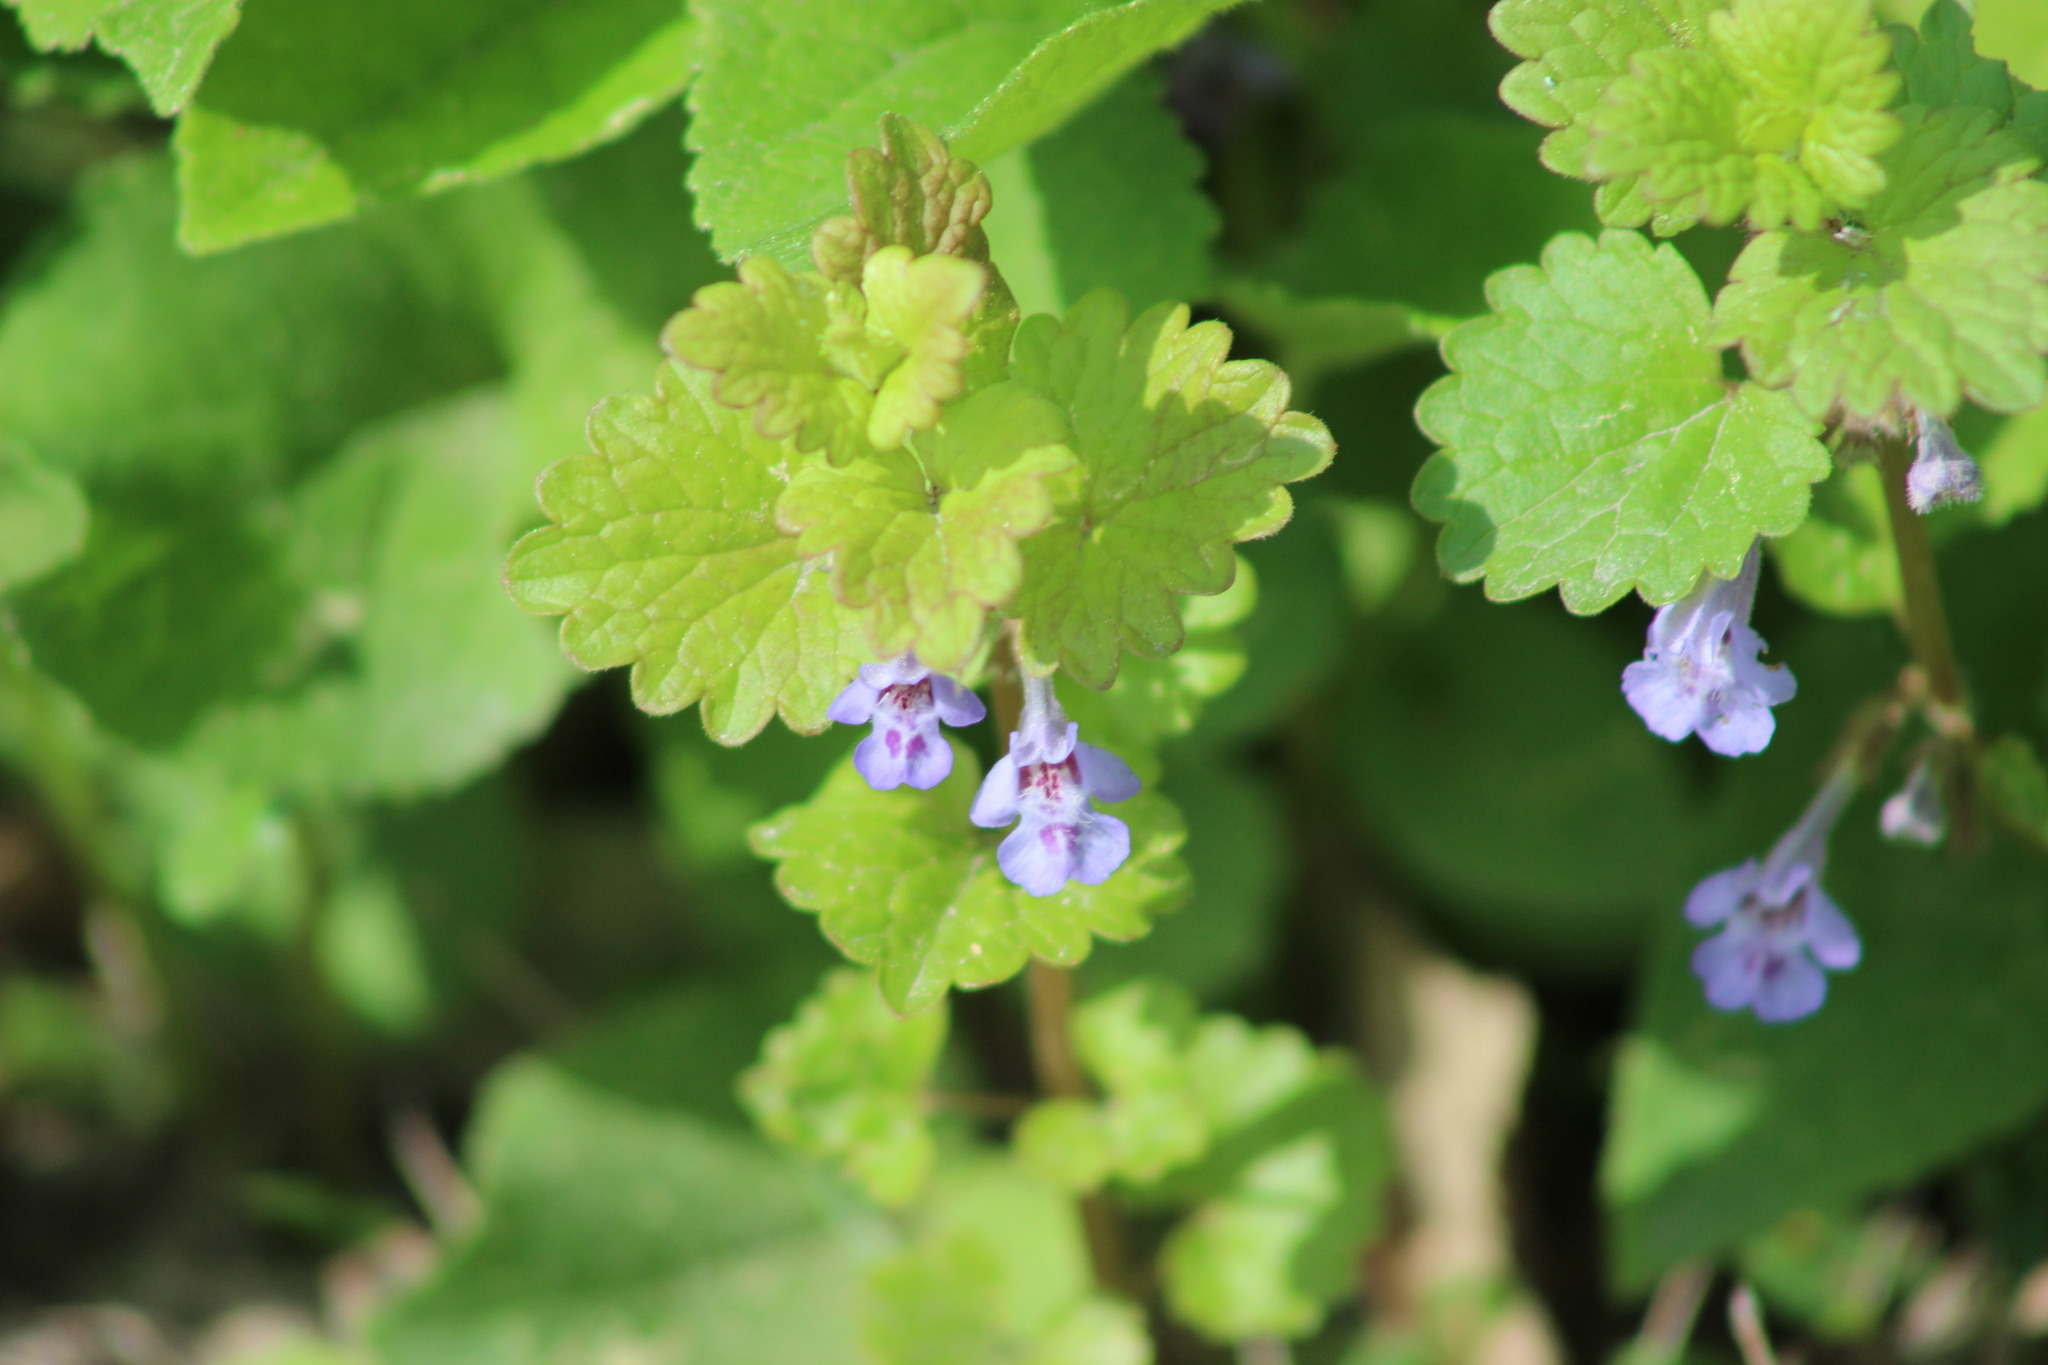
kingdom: Plantae
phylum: Tracheophyta
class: Magnoliopsida
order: Lamiales
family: Lamiaceae
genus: Glechoma
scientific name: Glechoma hederacea
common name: Ground ivy
